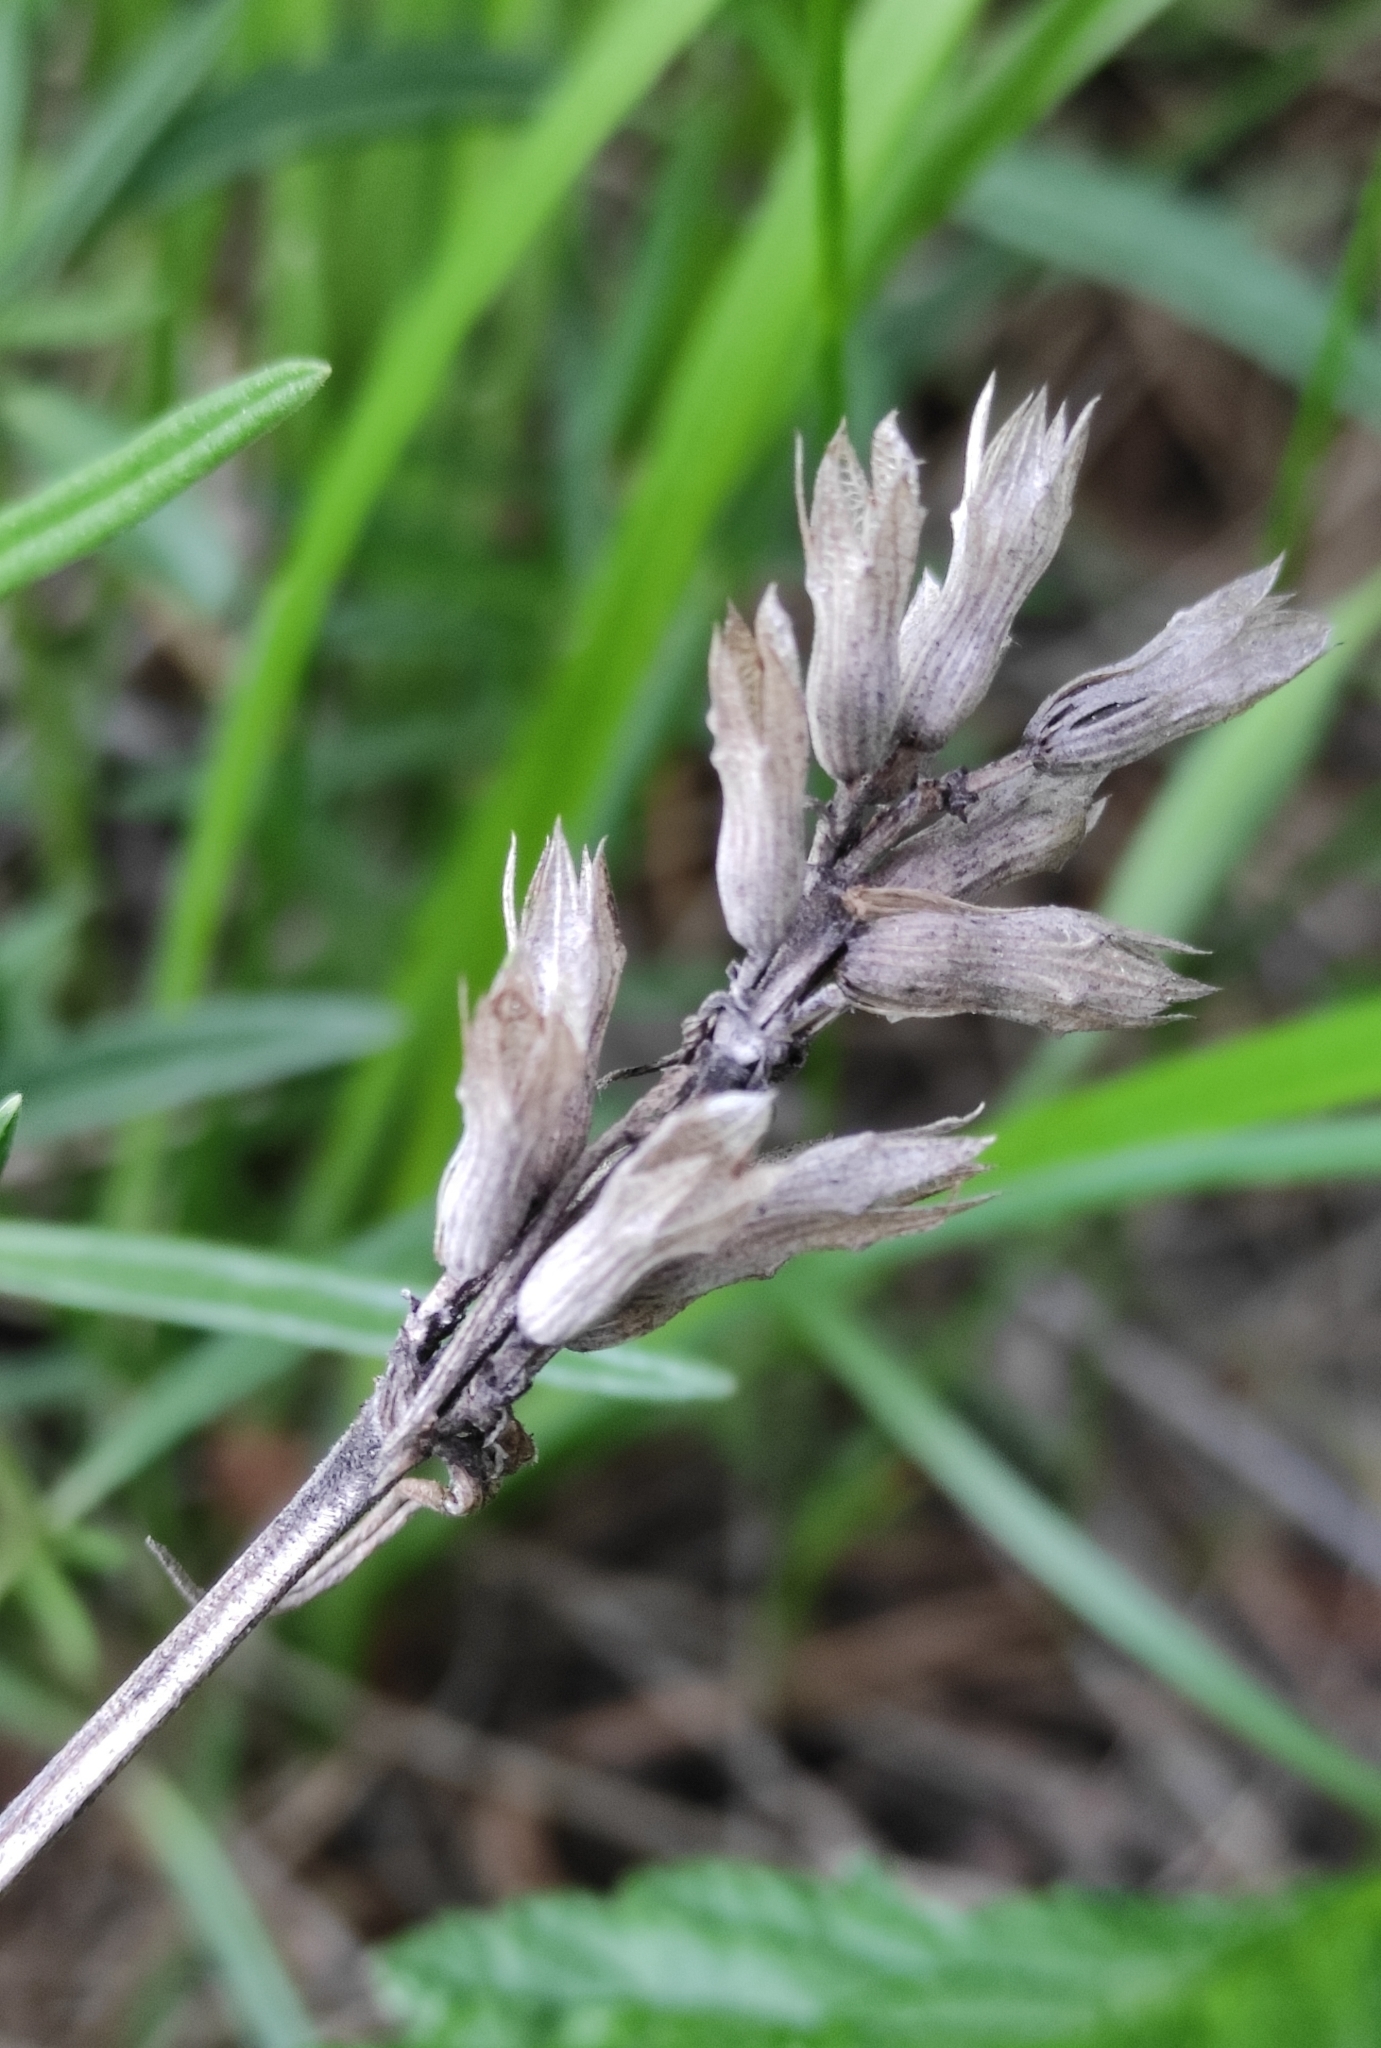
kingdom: Plantae
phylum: Tracheophyta
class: Magnoliopsida
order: Lamiales
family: Lamiaceae
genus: Dracocephalum
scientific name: Dracocephalum ruyschiana
